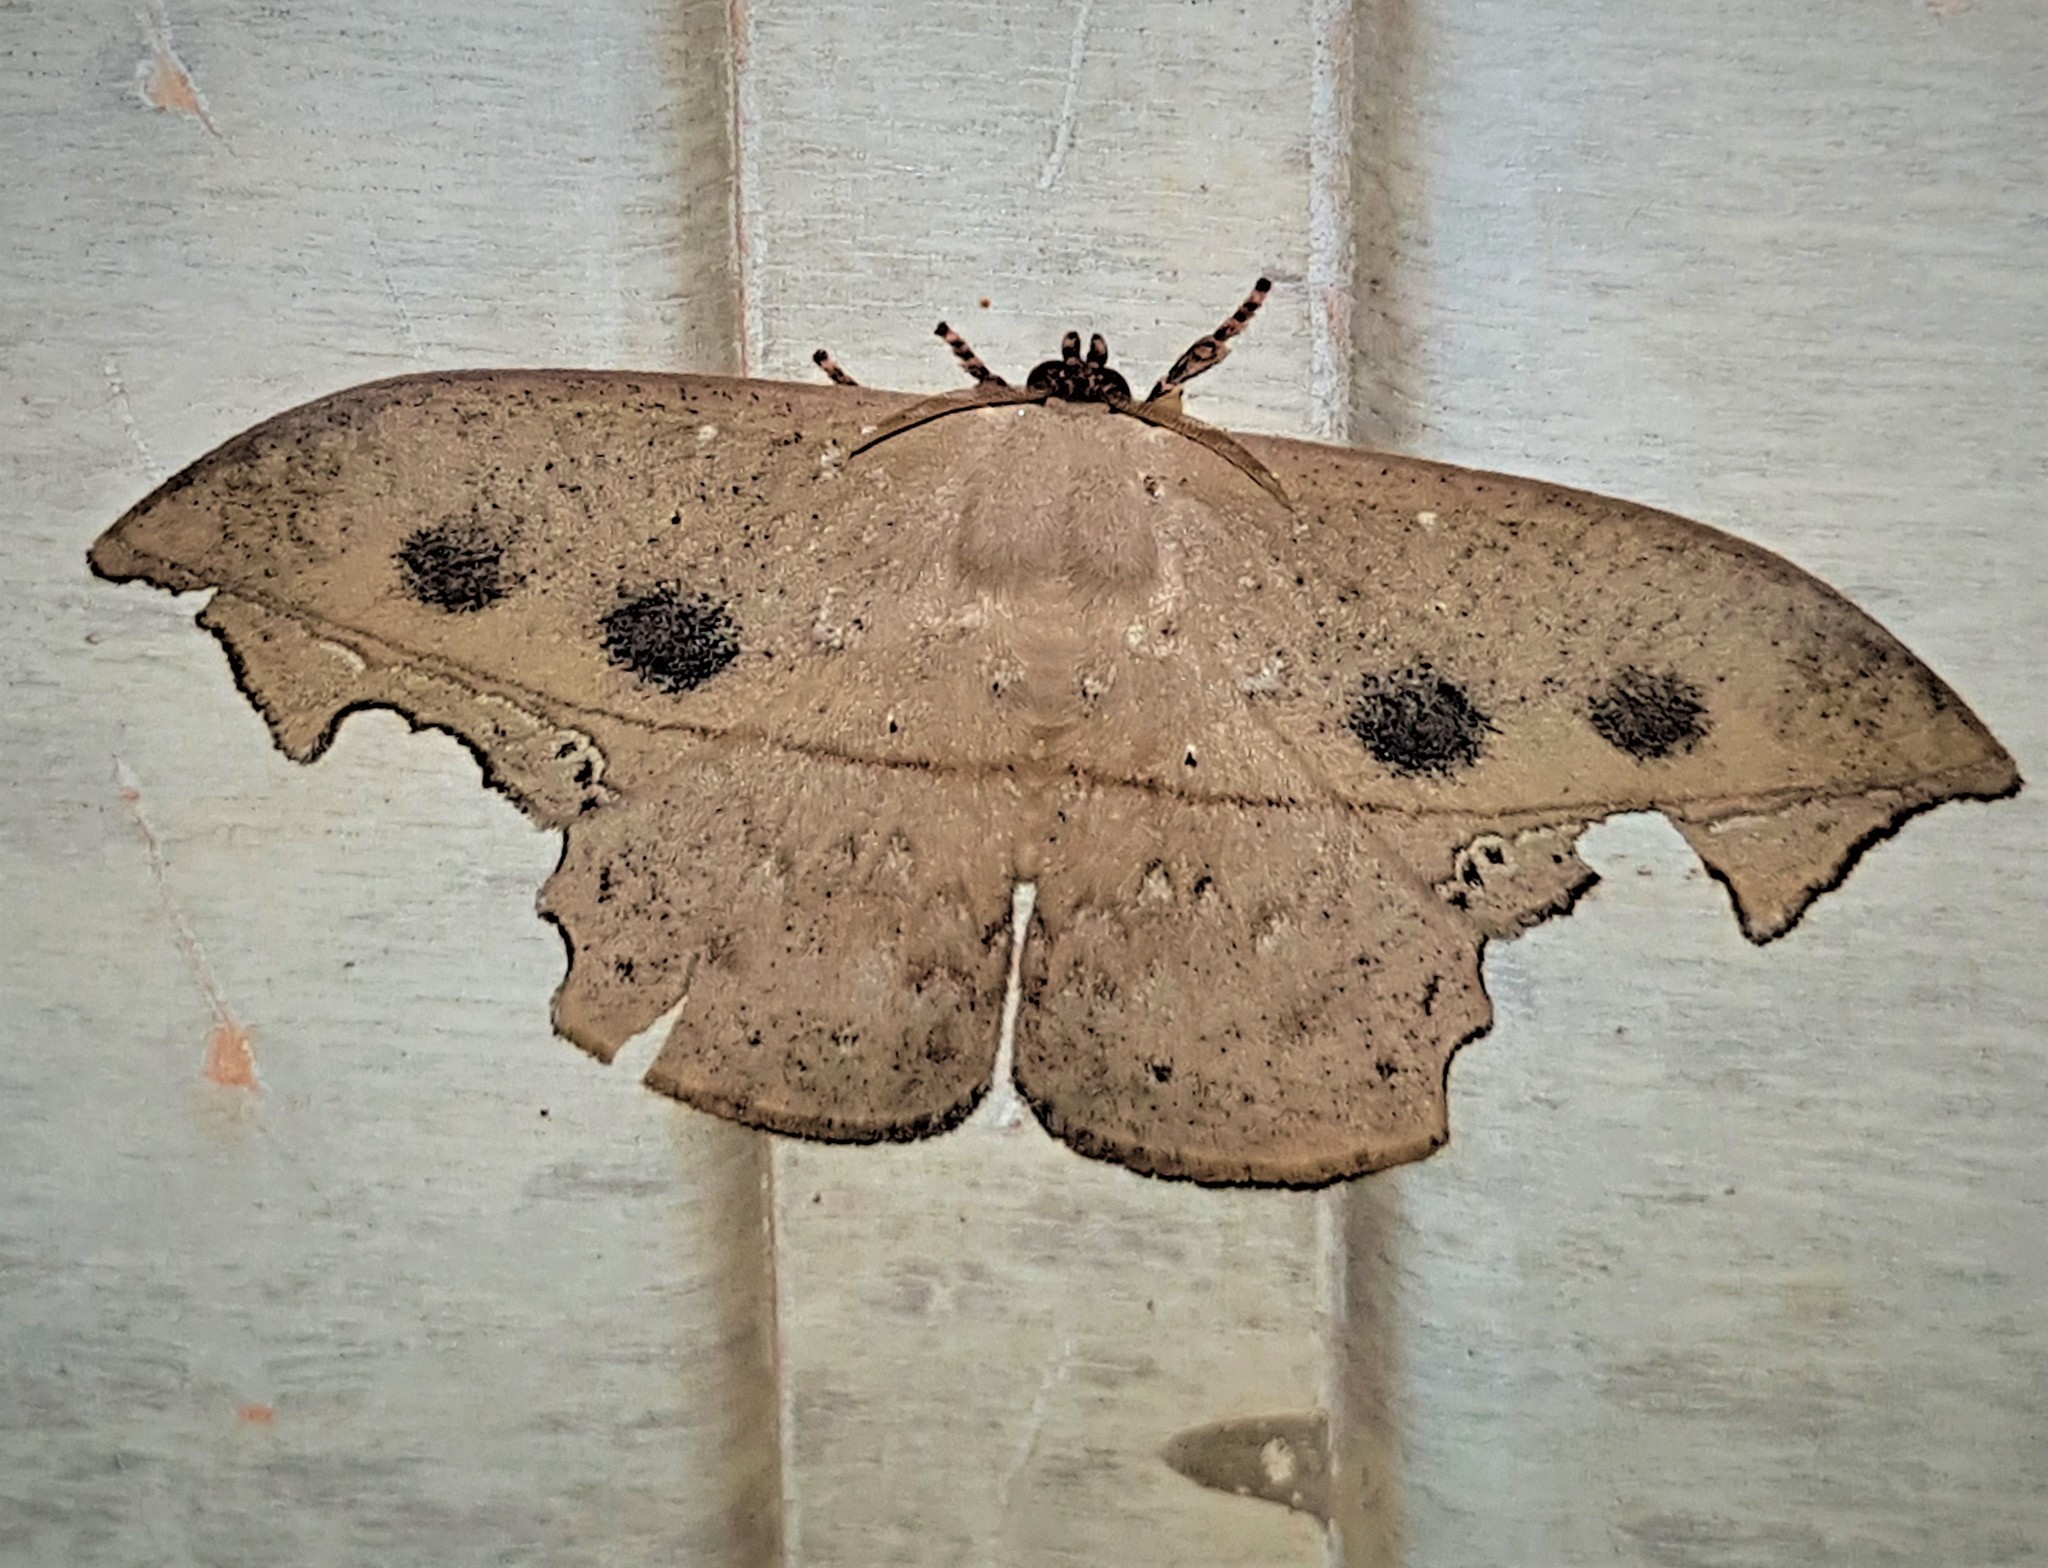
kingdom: Animalia
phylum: Arthropoda
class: Insecta
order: Lepidoptera
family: Saturniidae
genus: Oxytenis
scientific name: Oxytenis nubila
